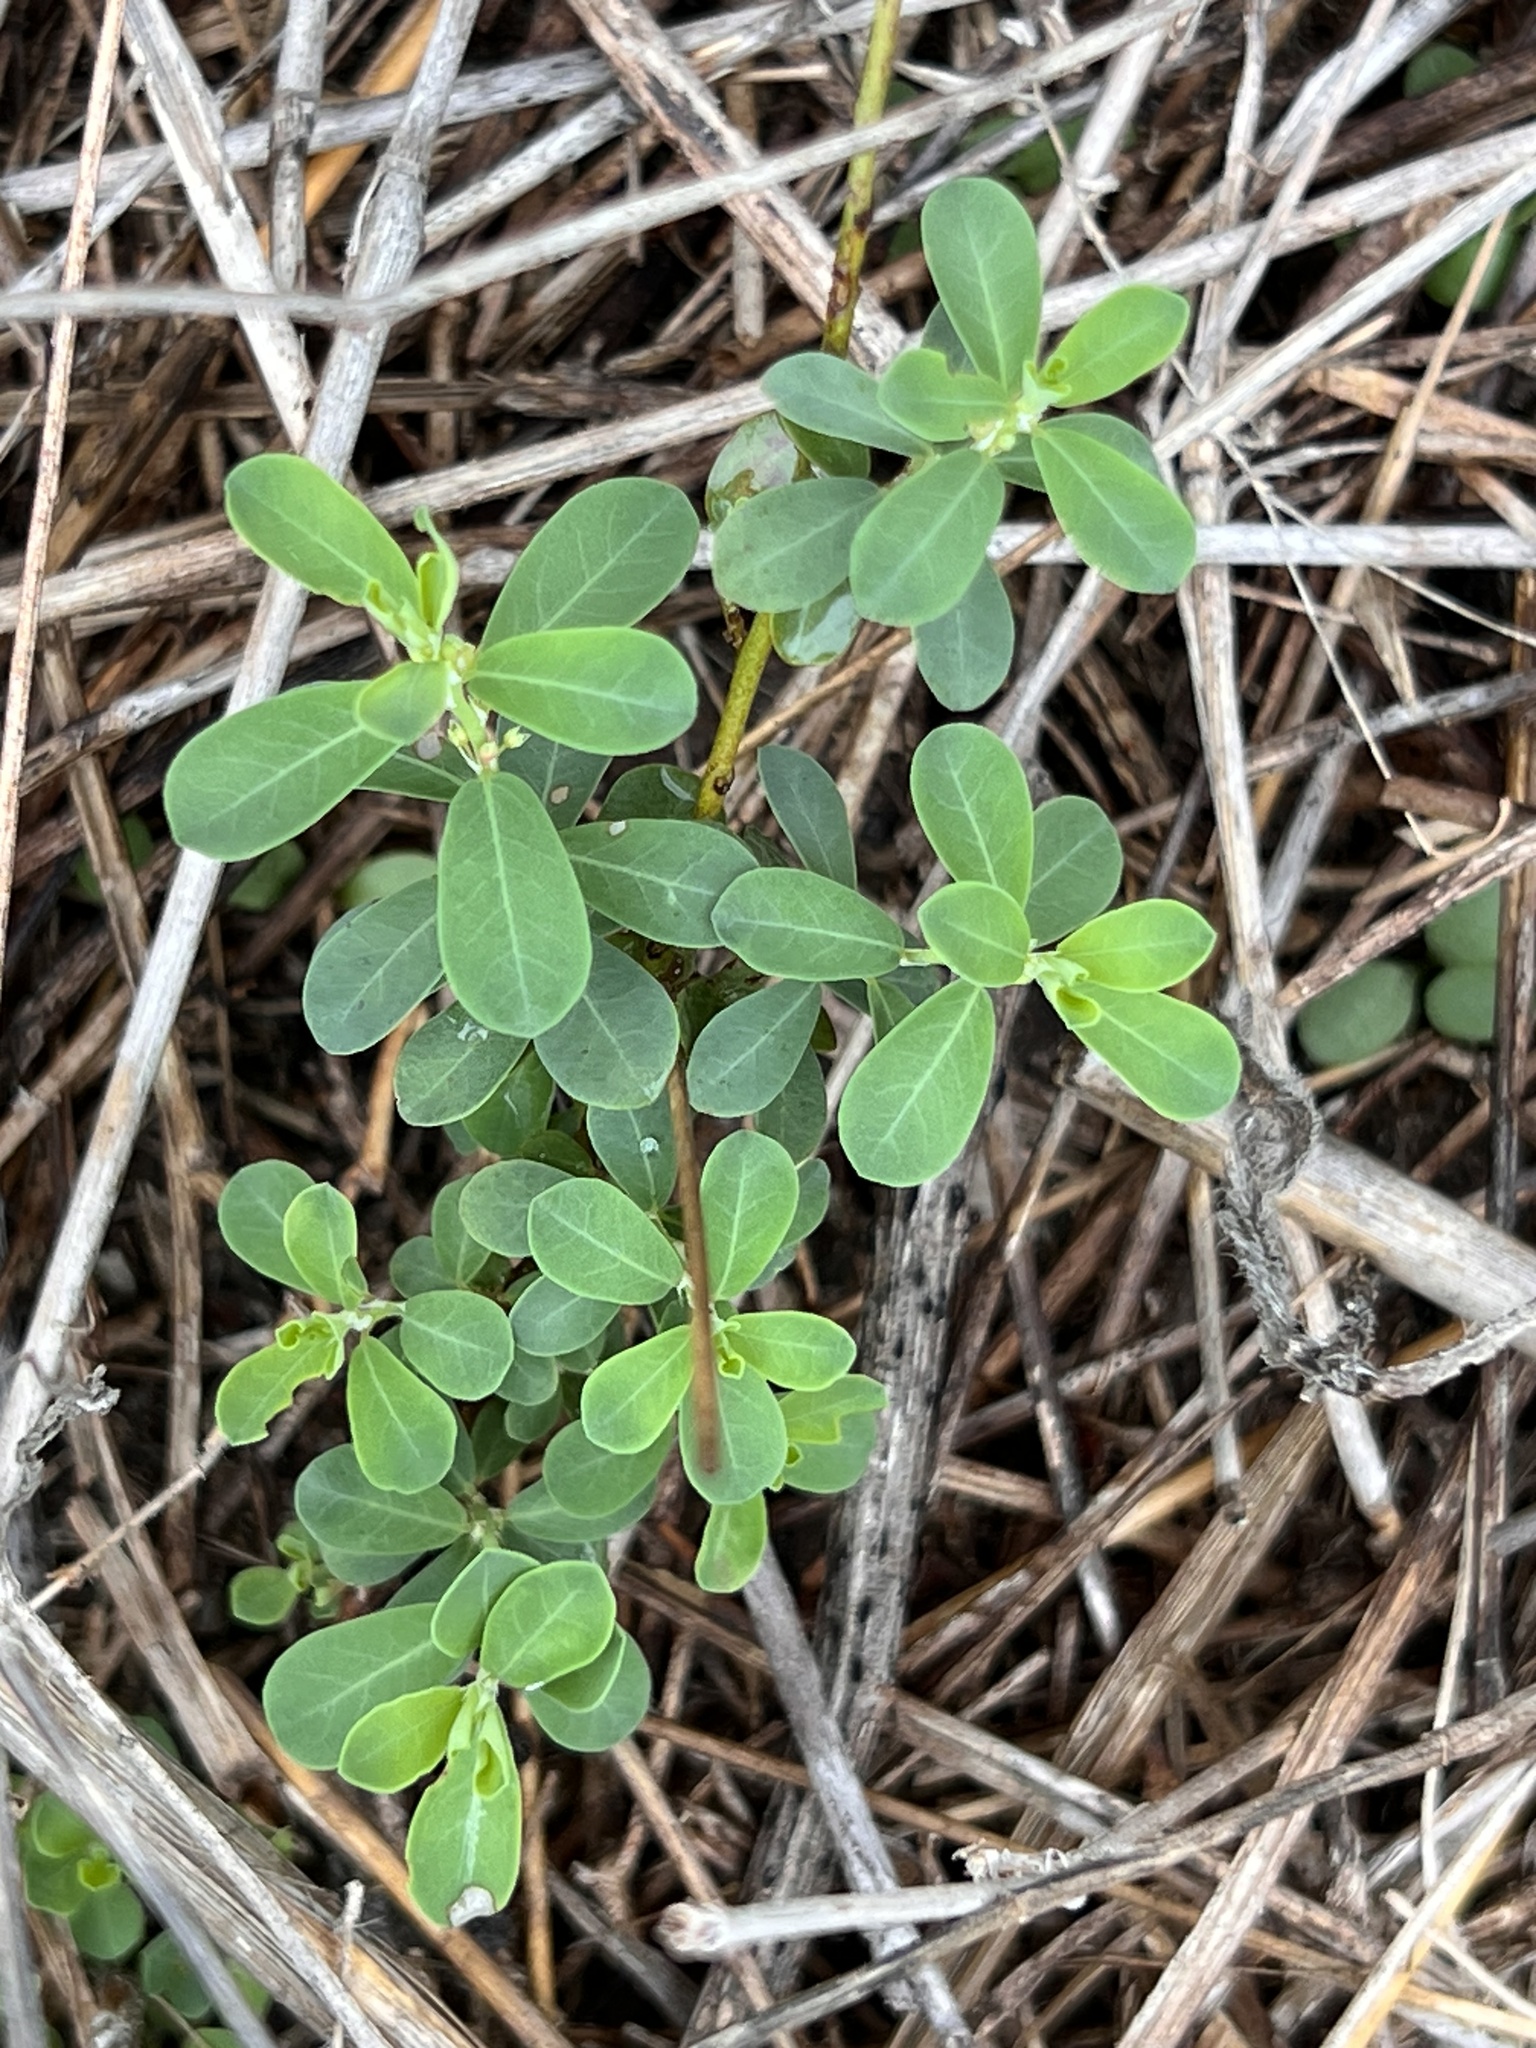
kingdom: Plantae
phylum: Tracheophyta
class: Magnoliopsida
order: Malpighiales
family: Phyllanthaceae
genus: Phyllanthus
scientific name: Phyllanthus polygonoides
